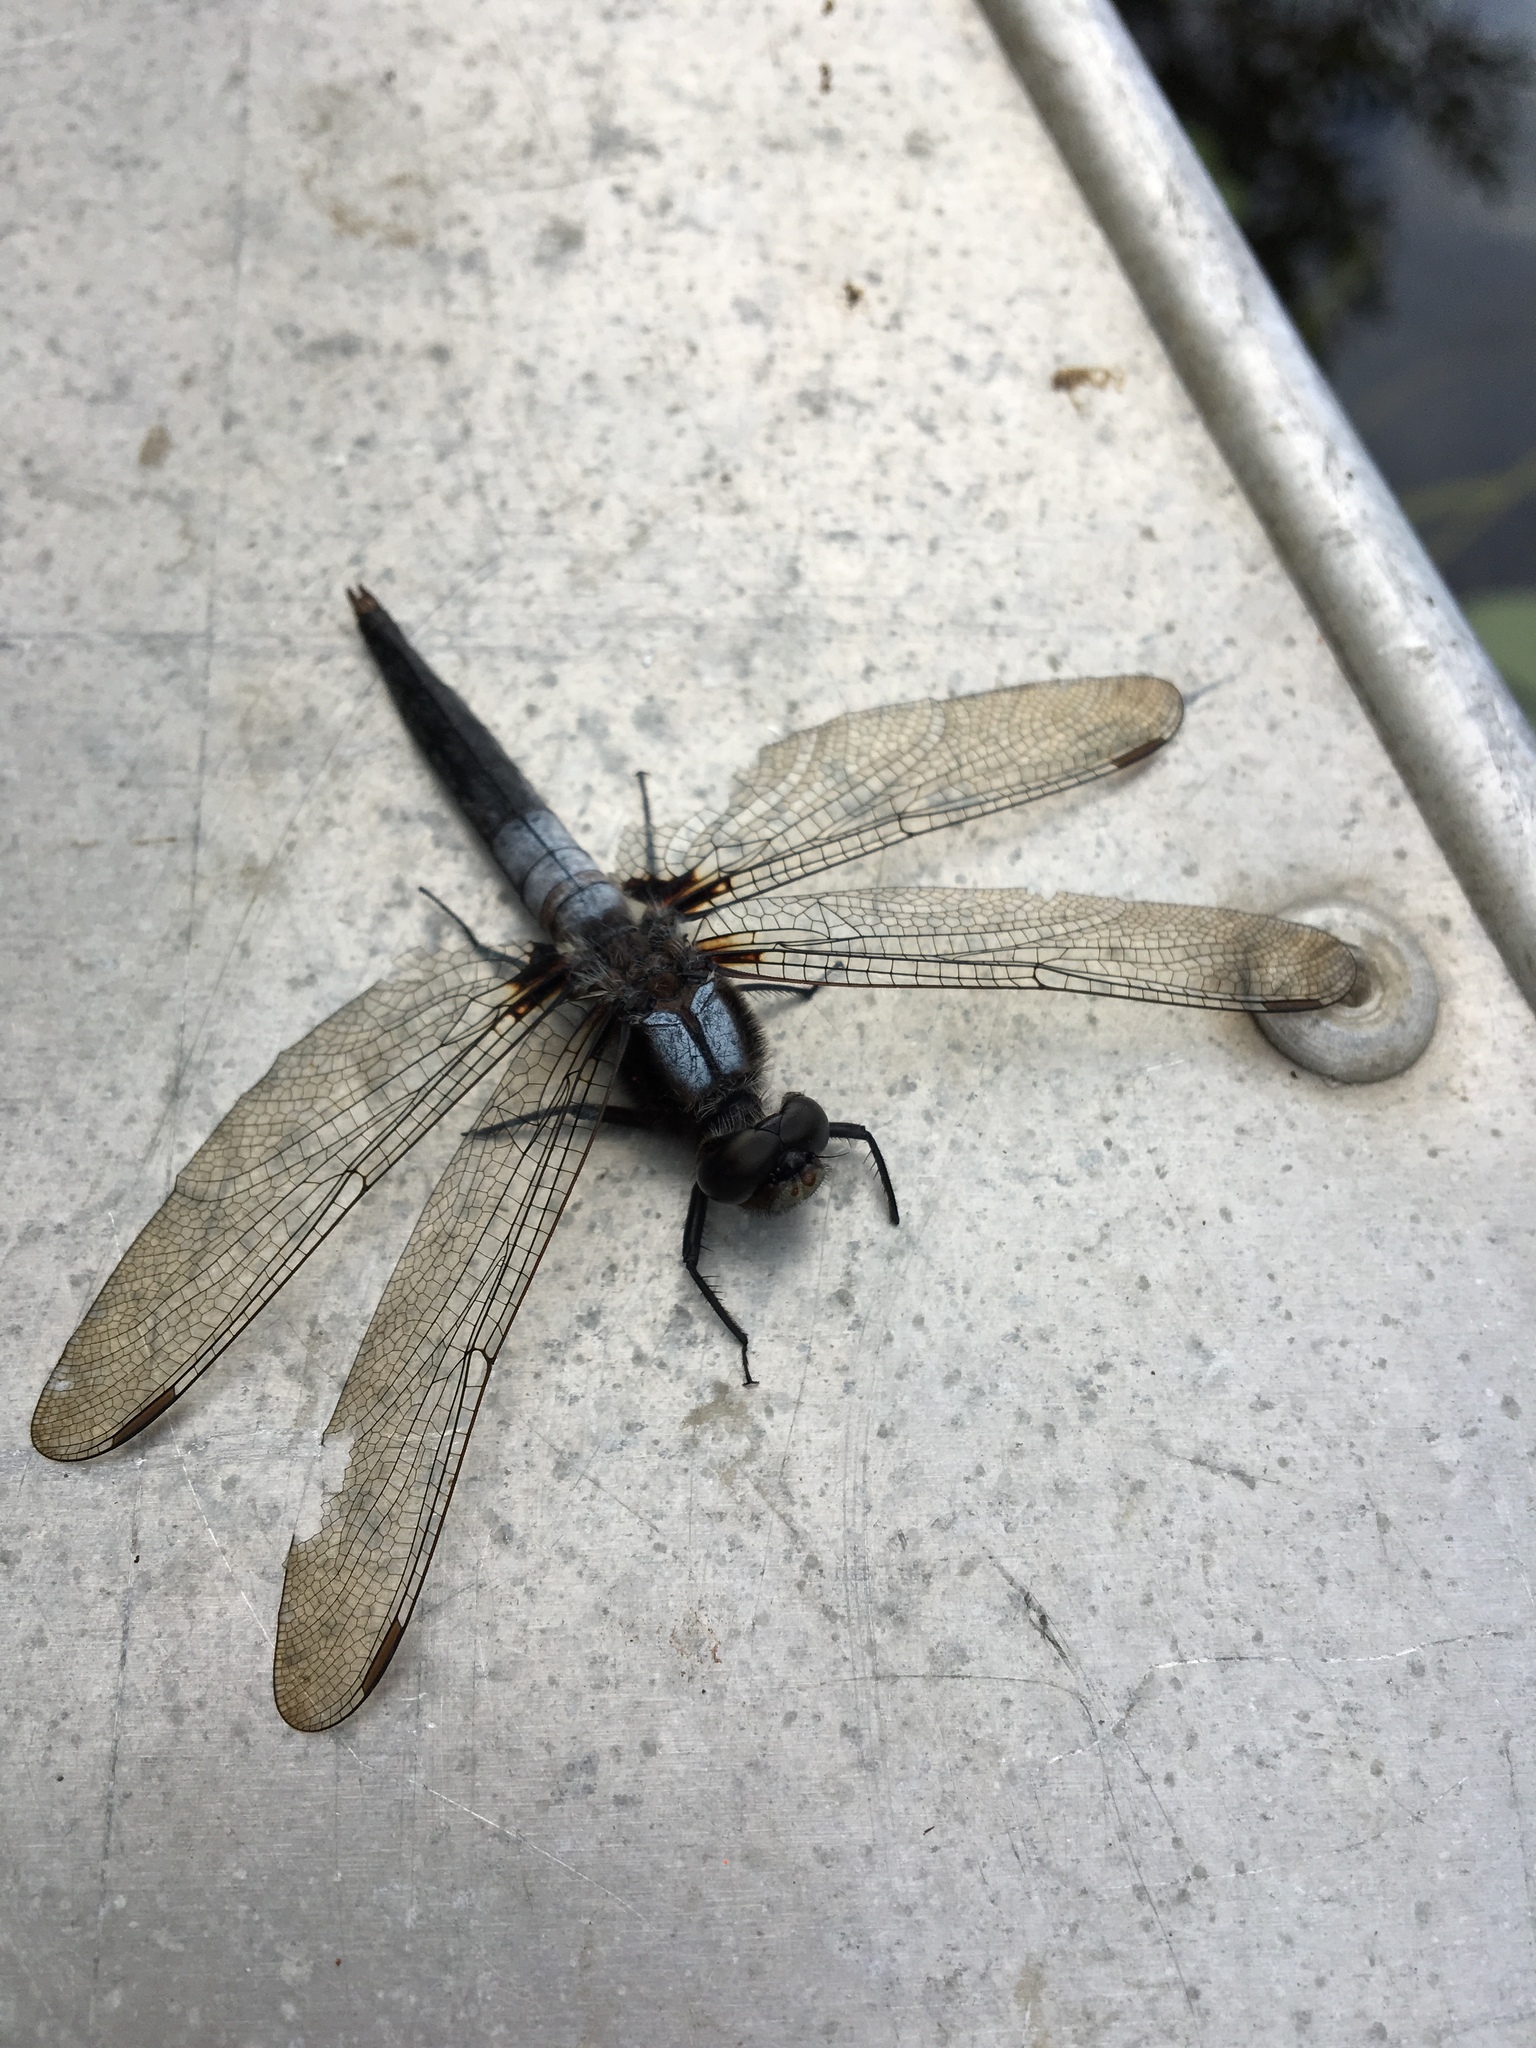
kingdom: Animalia
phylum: Arthropoda
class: Insecta
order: Odonata
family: Libellulidae
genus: Ladona
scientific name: Ladona julia
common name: Chalk-fronted corporal
